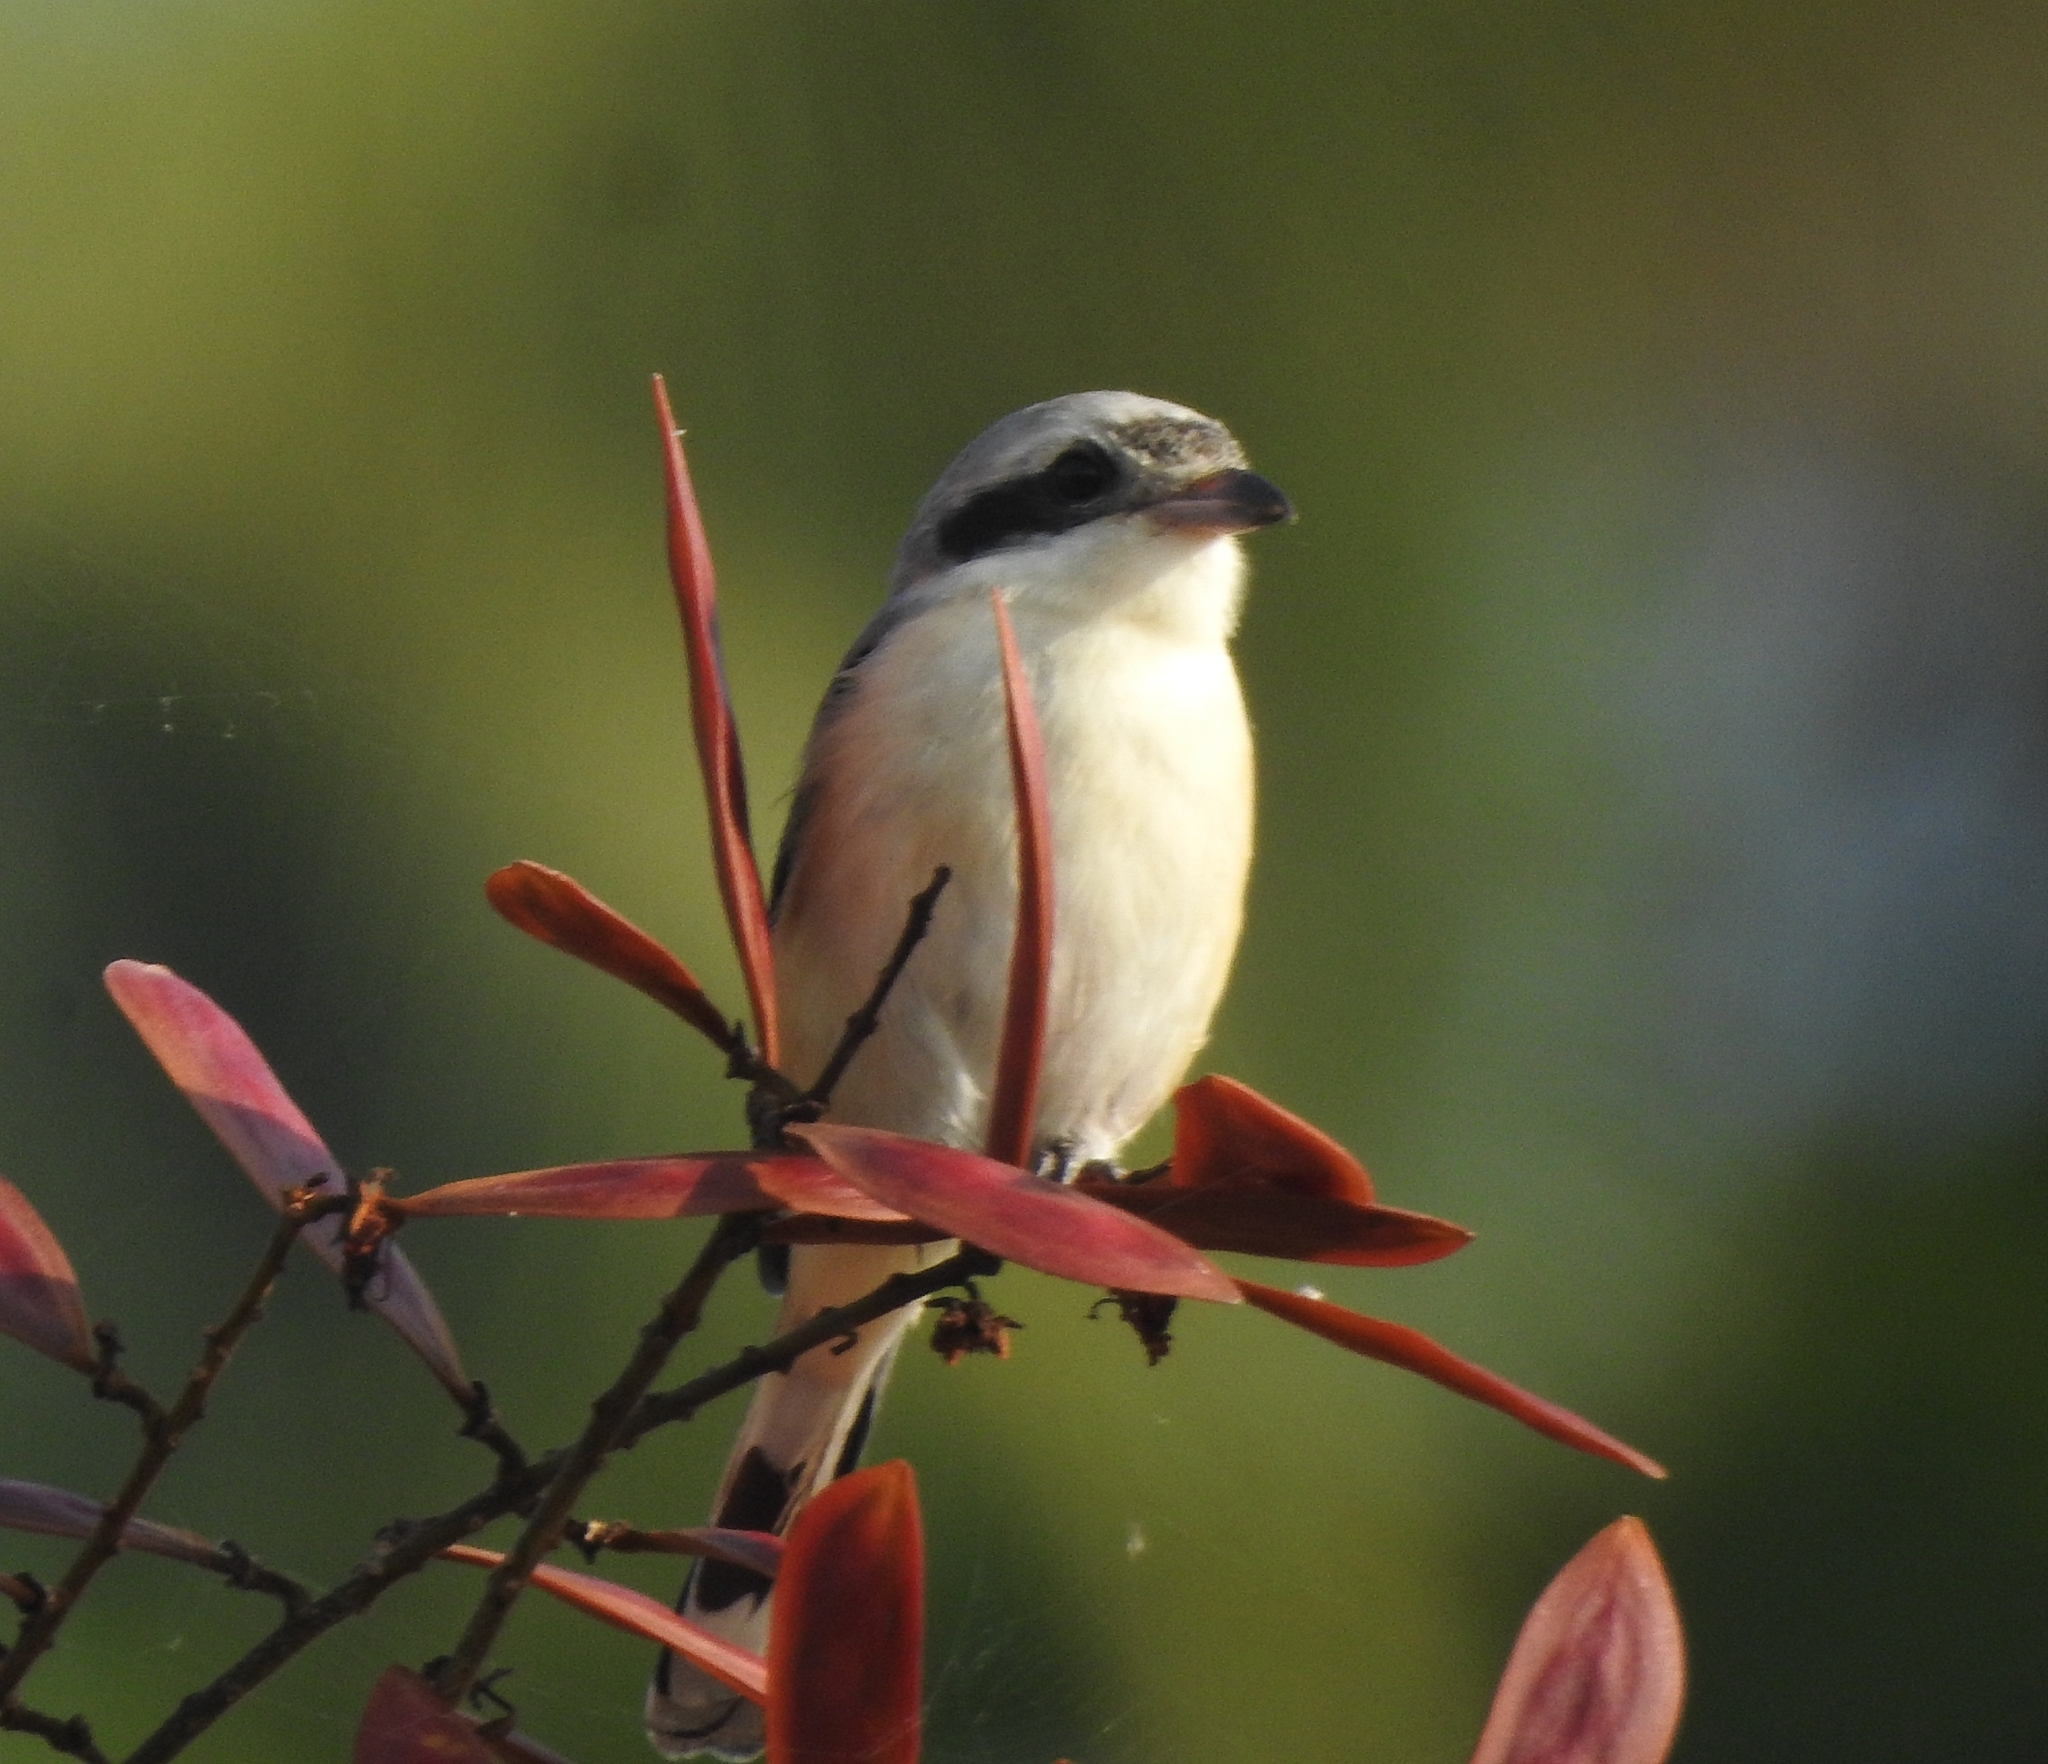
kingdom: Animalia
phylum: Chordata
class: Aves
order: Passeriformes
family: Laniidae
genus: Lanius
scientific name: Lanius schach
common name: Long-tailed shrike
